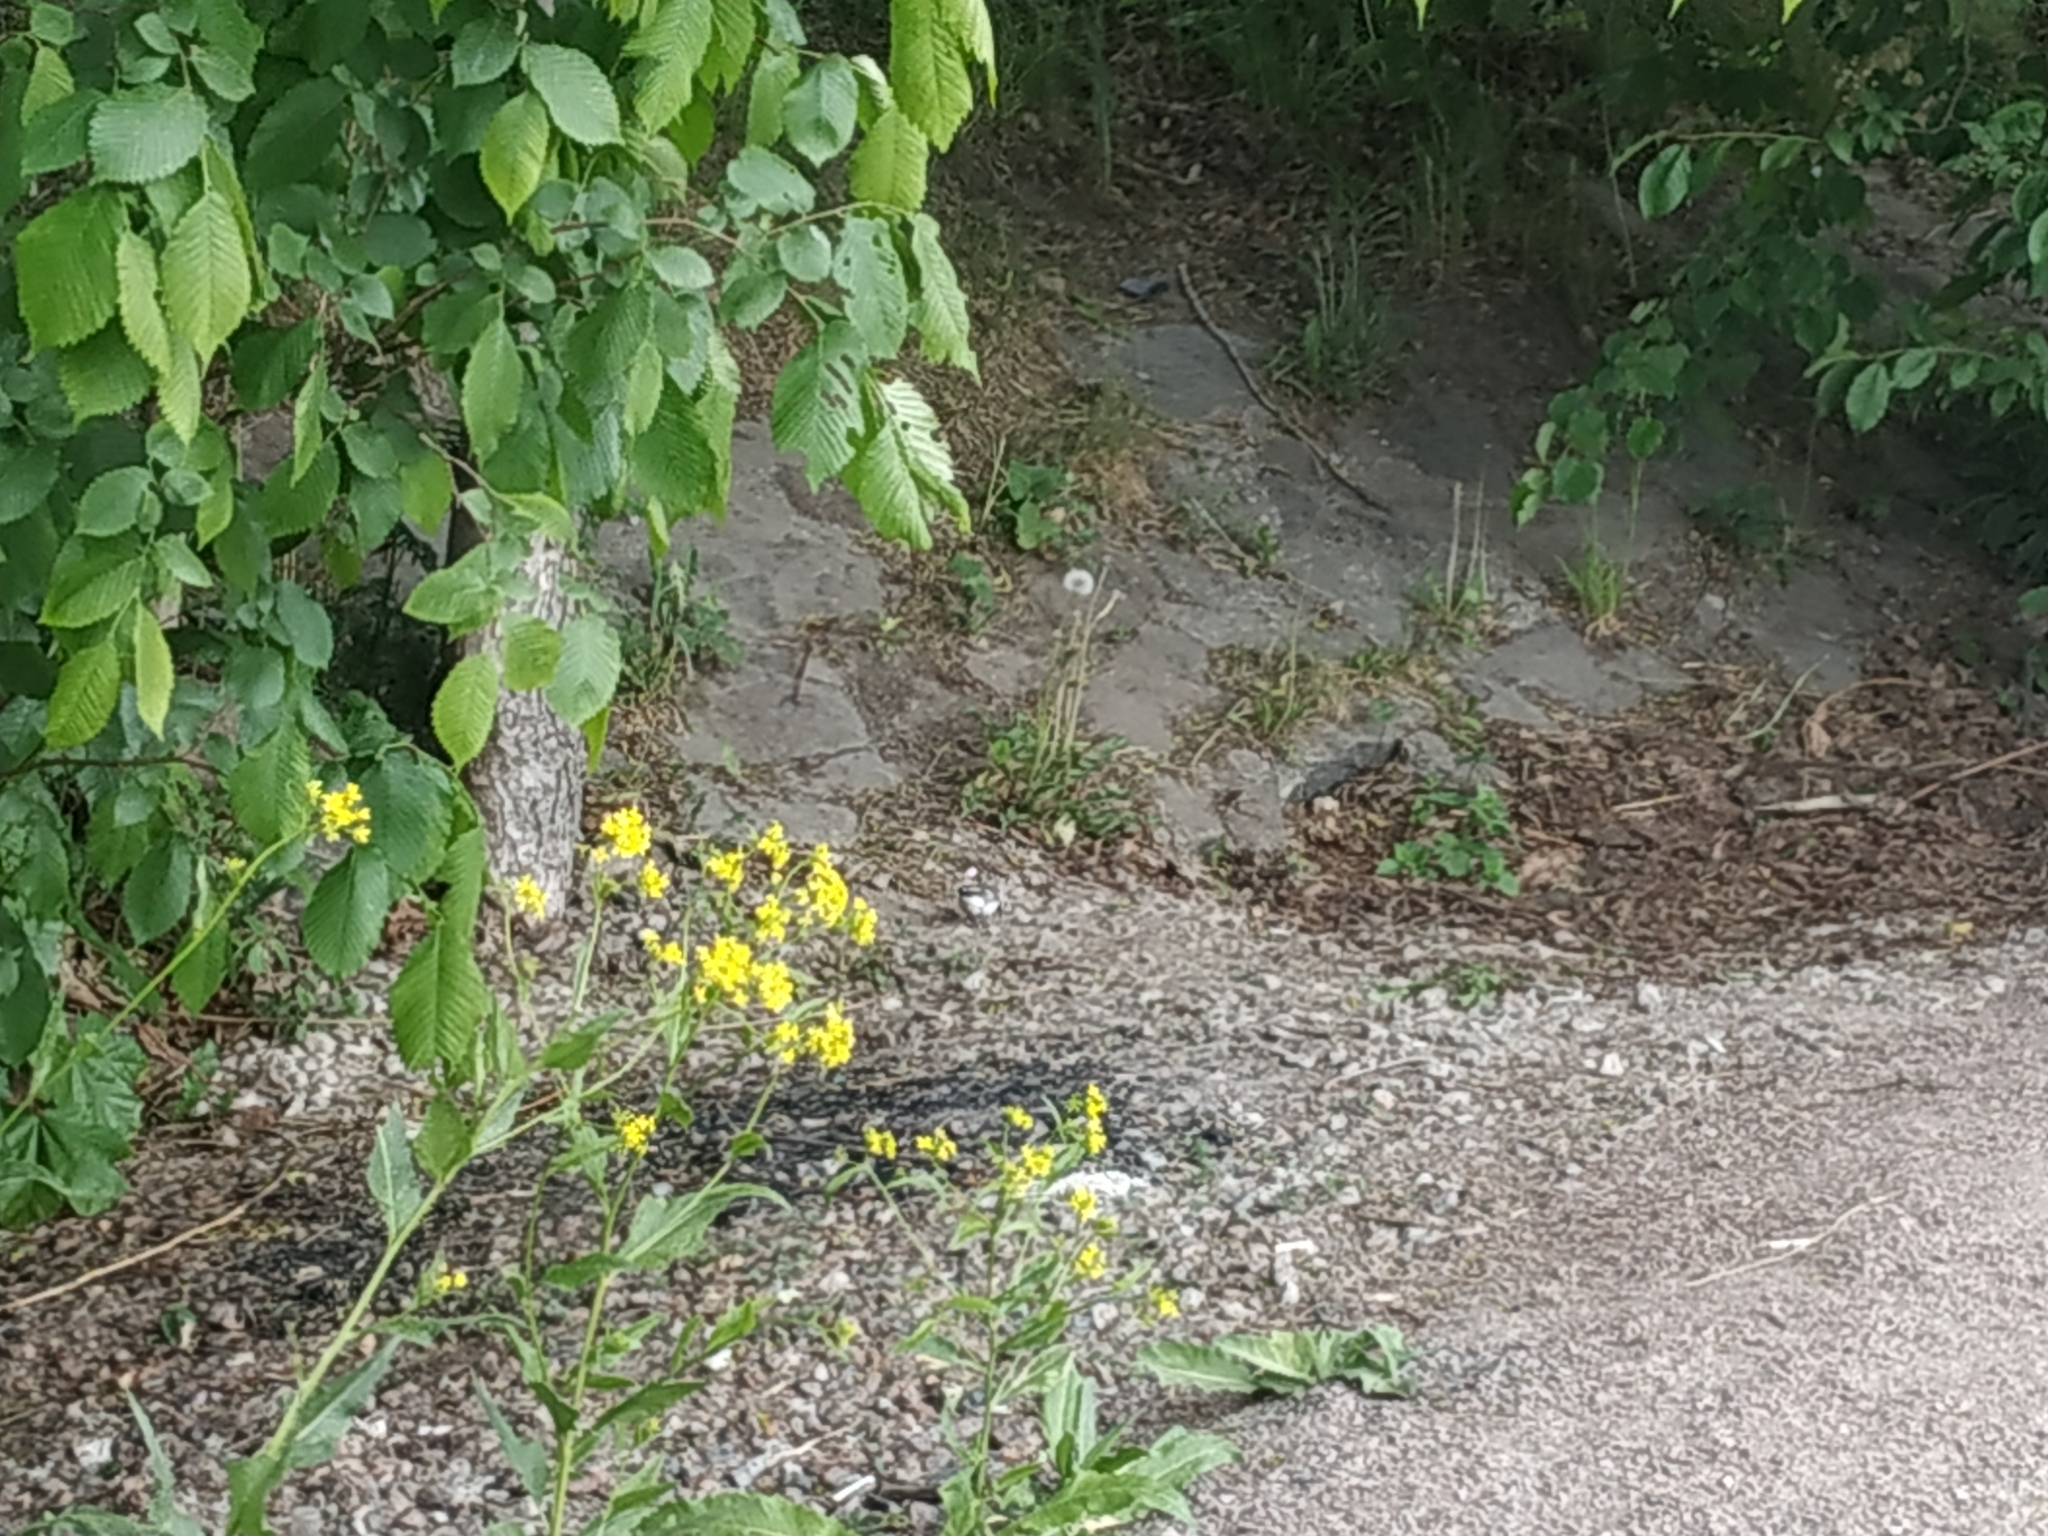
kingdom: Animalia
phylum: Chordata
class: Aves
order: Passeriformes
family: Motacillidae
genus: Motacilla
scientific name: Motacilla alba
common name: White wagtail
